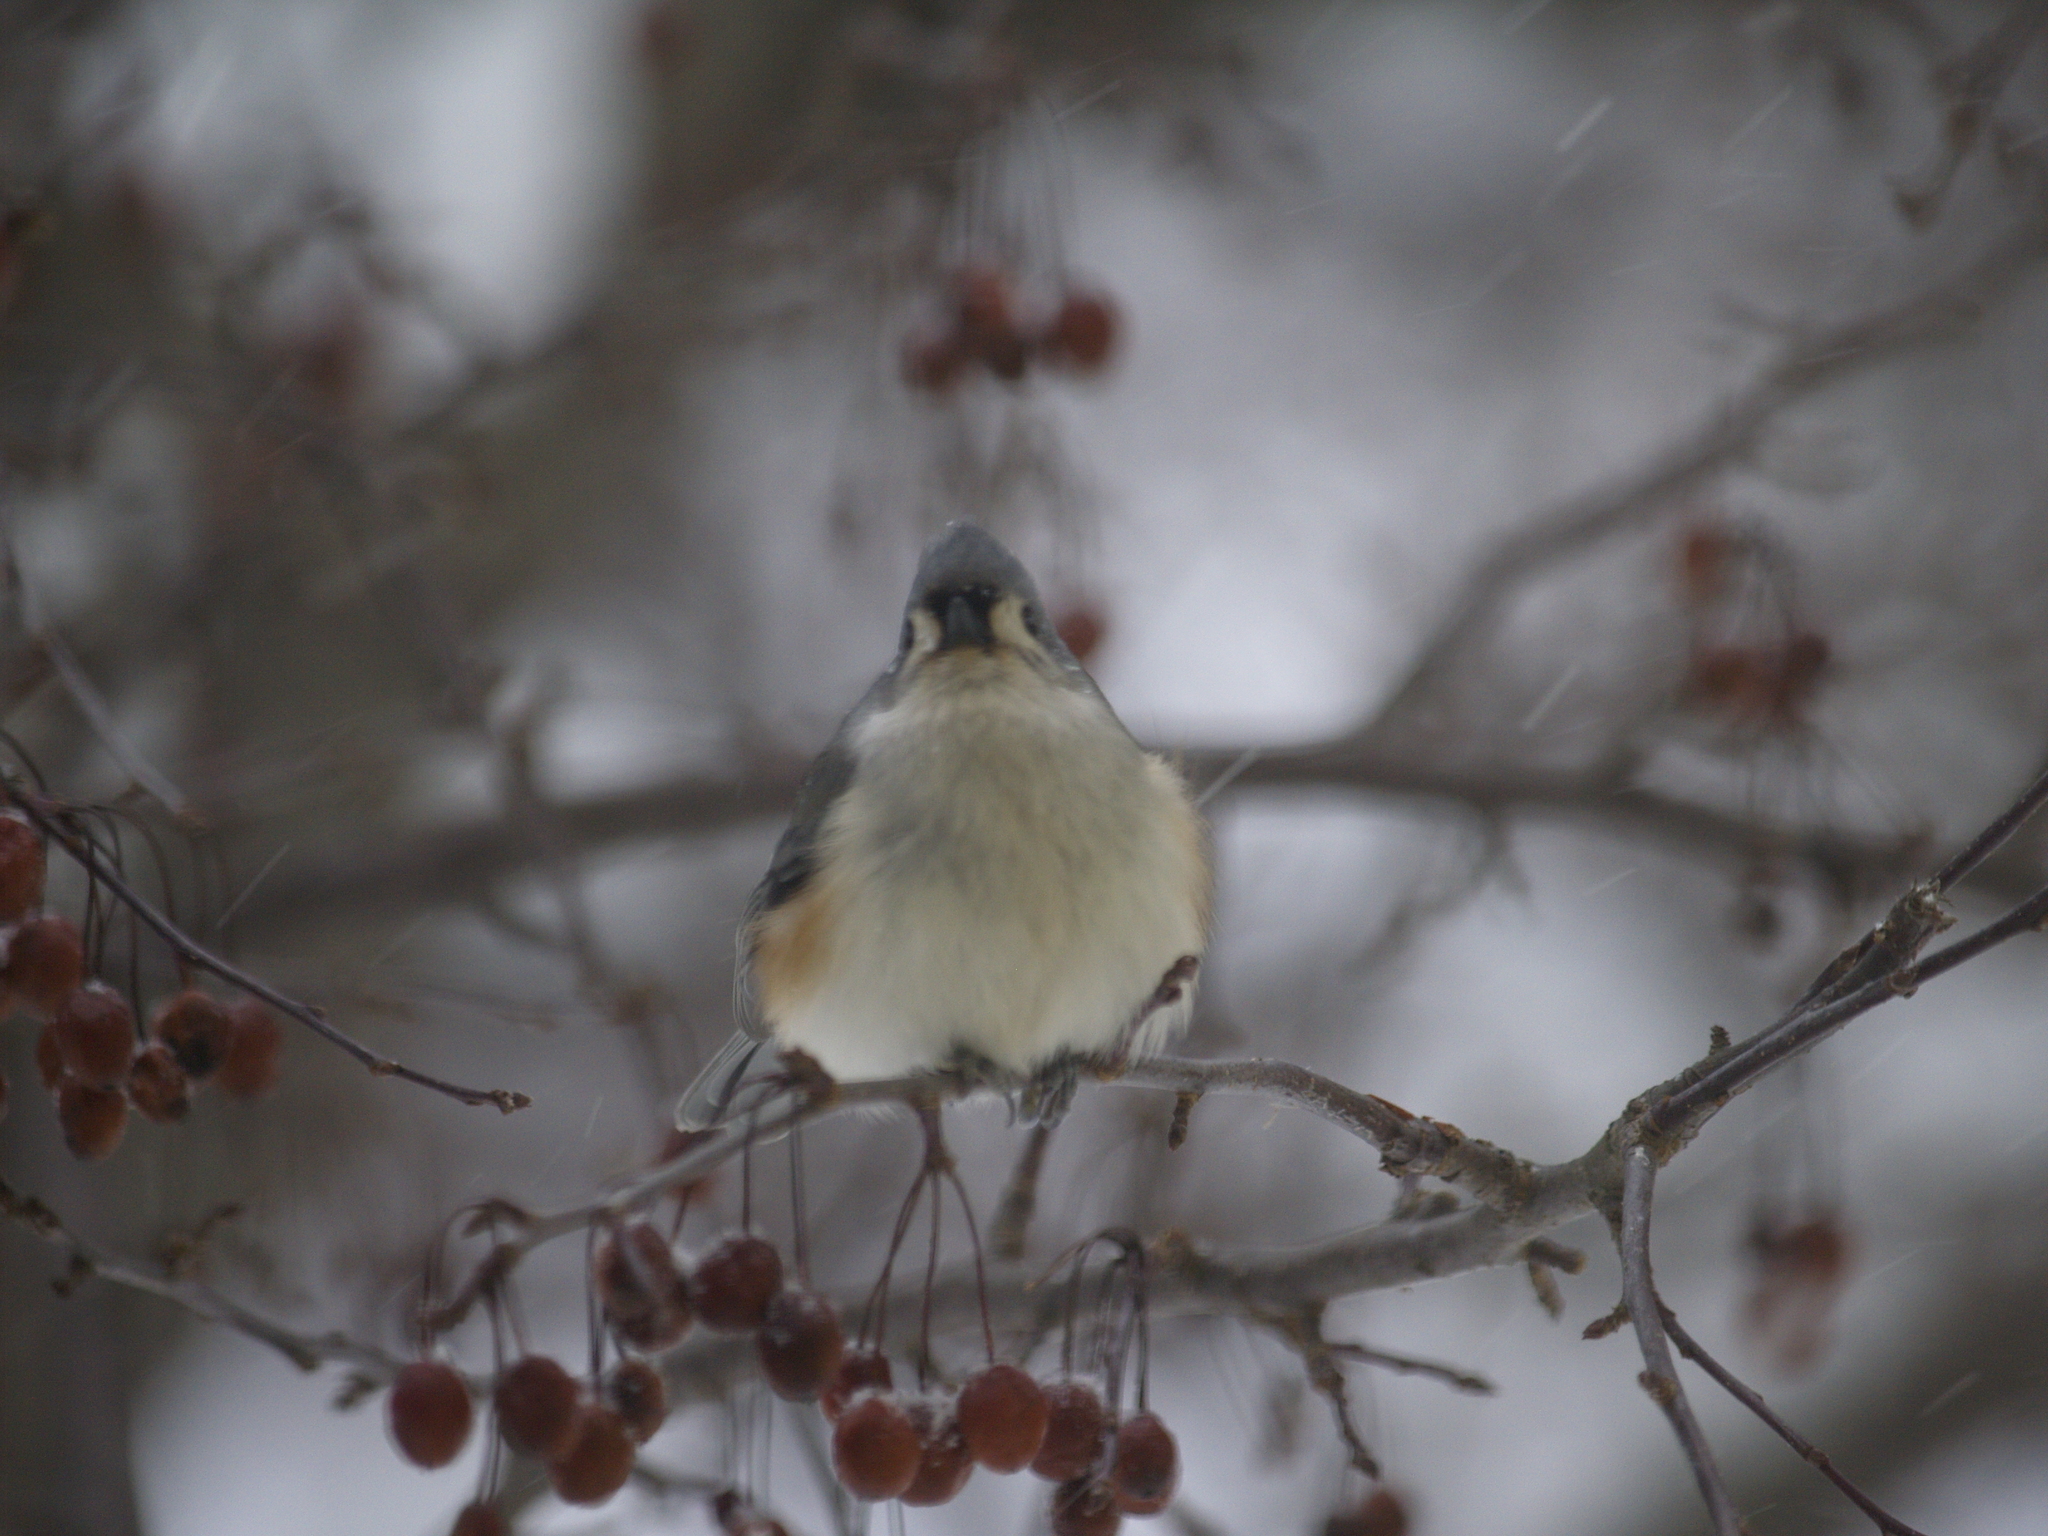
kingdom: Animalia
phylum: Chordata
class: Aves
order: Passeriformes
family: Paridae
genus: Baeolophus
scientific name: Baeolophus bicolor
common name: Tufted titmouse
